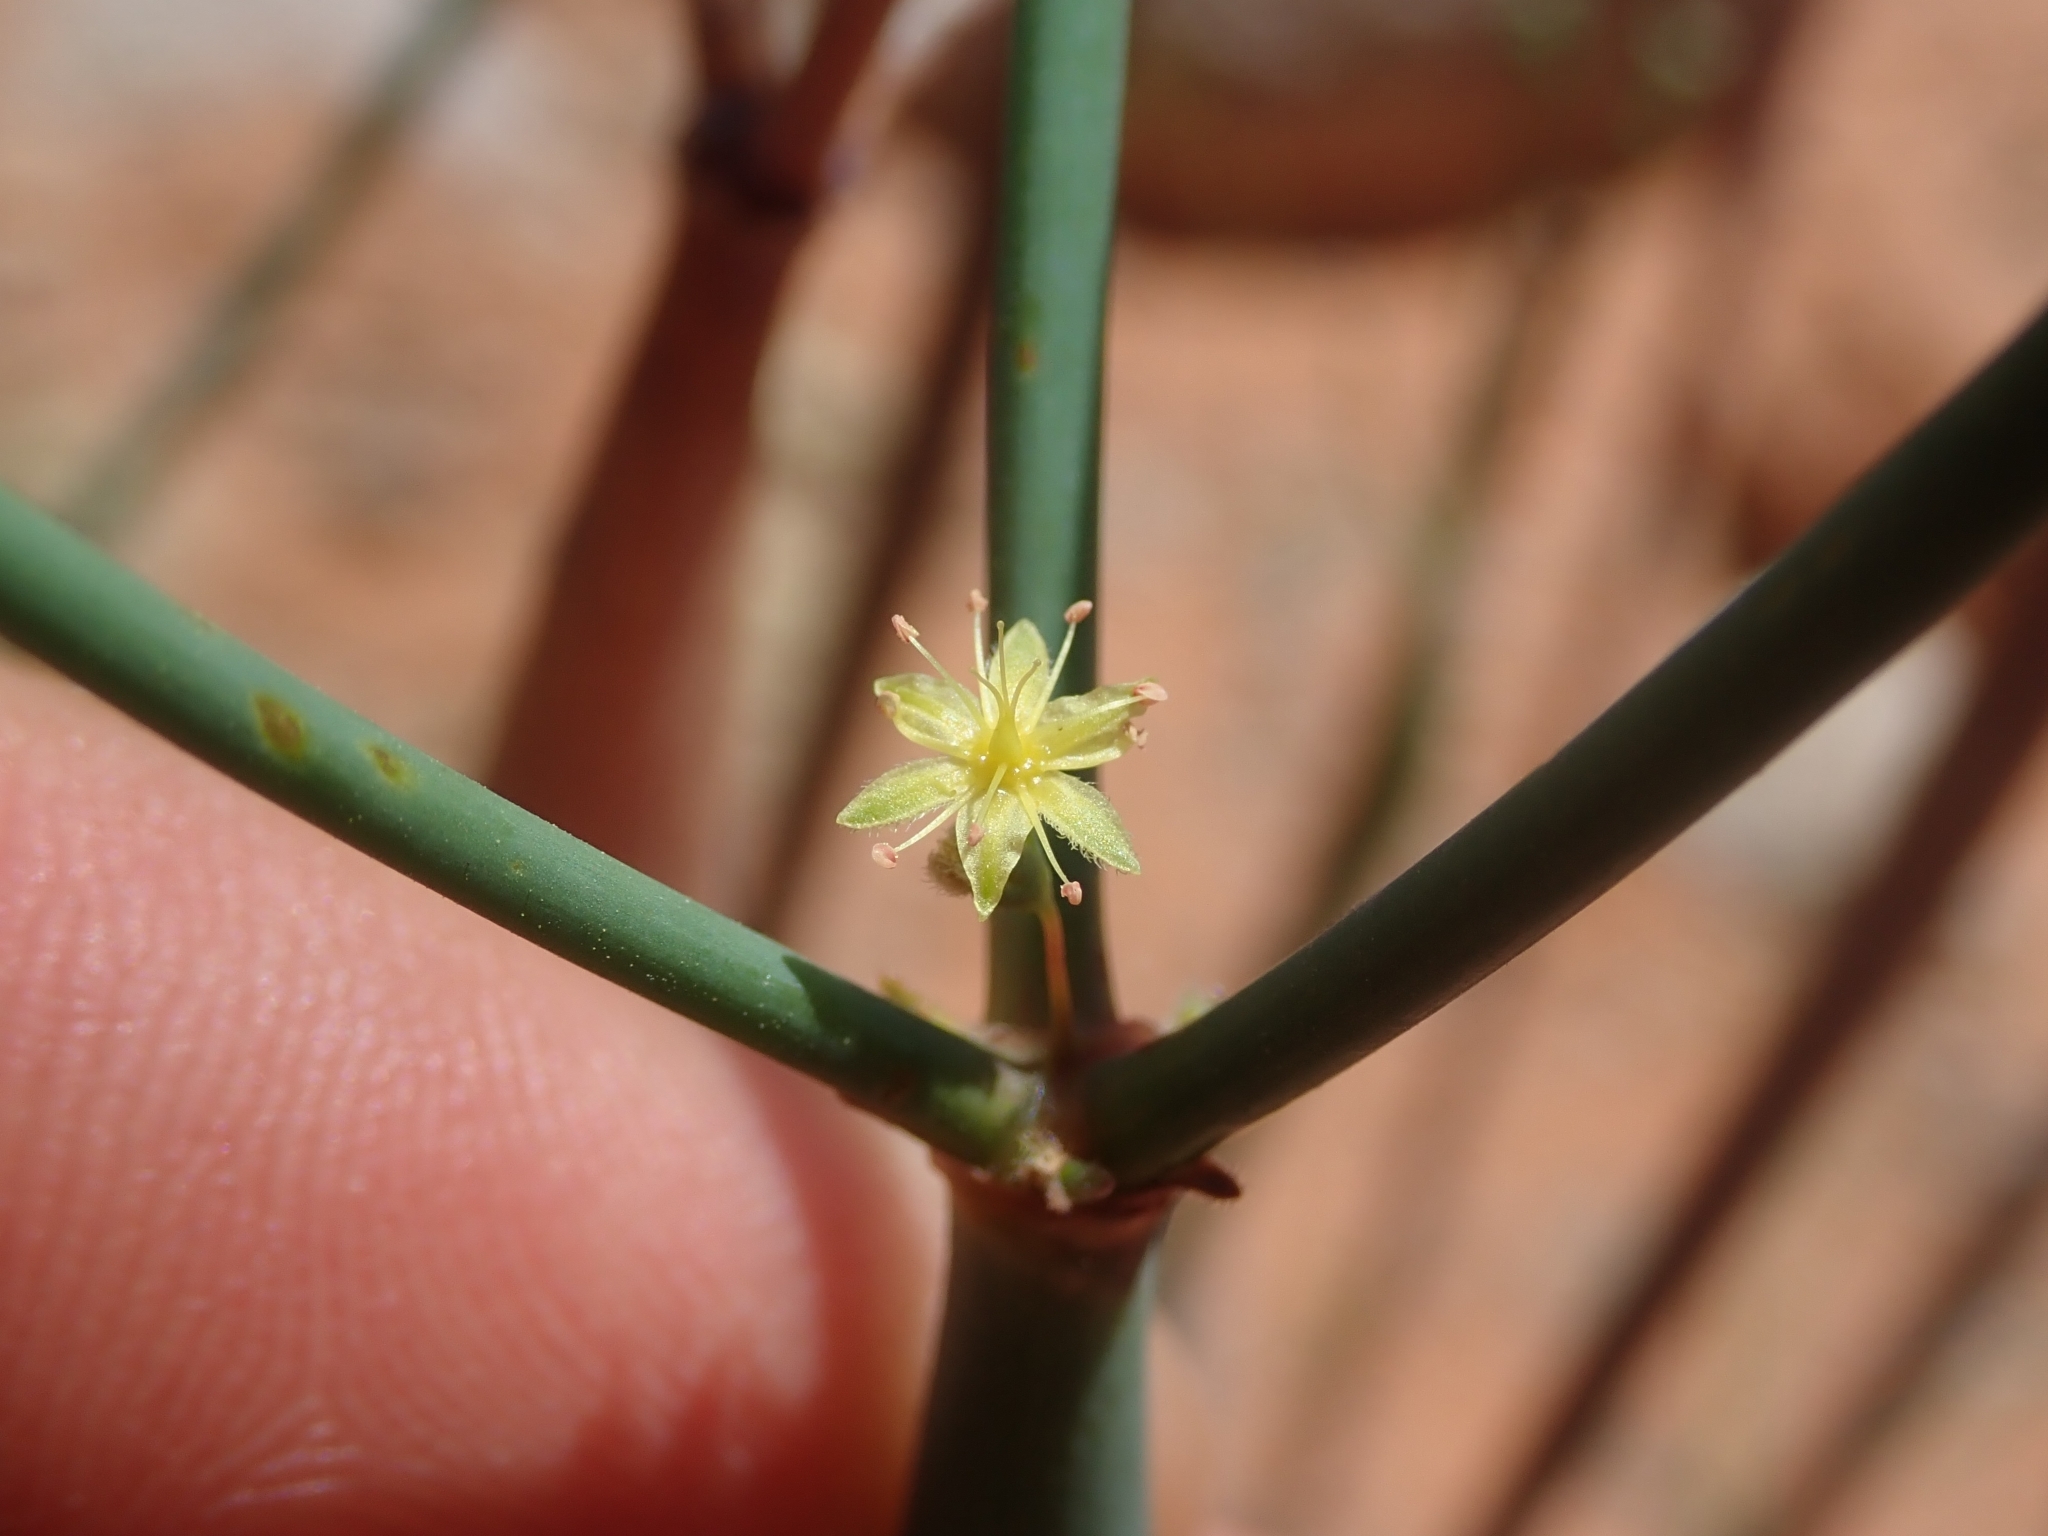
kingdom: Plantae
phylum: Tracheophyta
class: Magnoliopsida
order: Caryophyllales
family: Polygonaceae
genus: Eriogonum
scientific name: Eriogonum inflatum
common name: Desert trumpet
